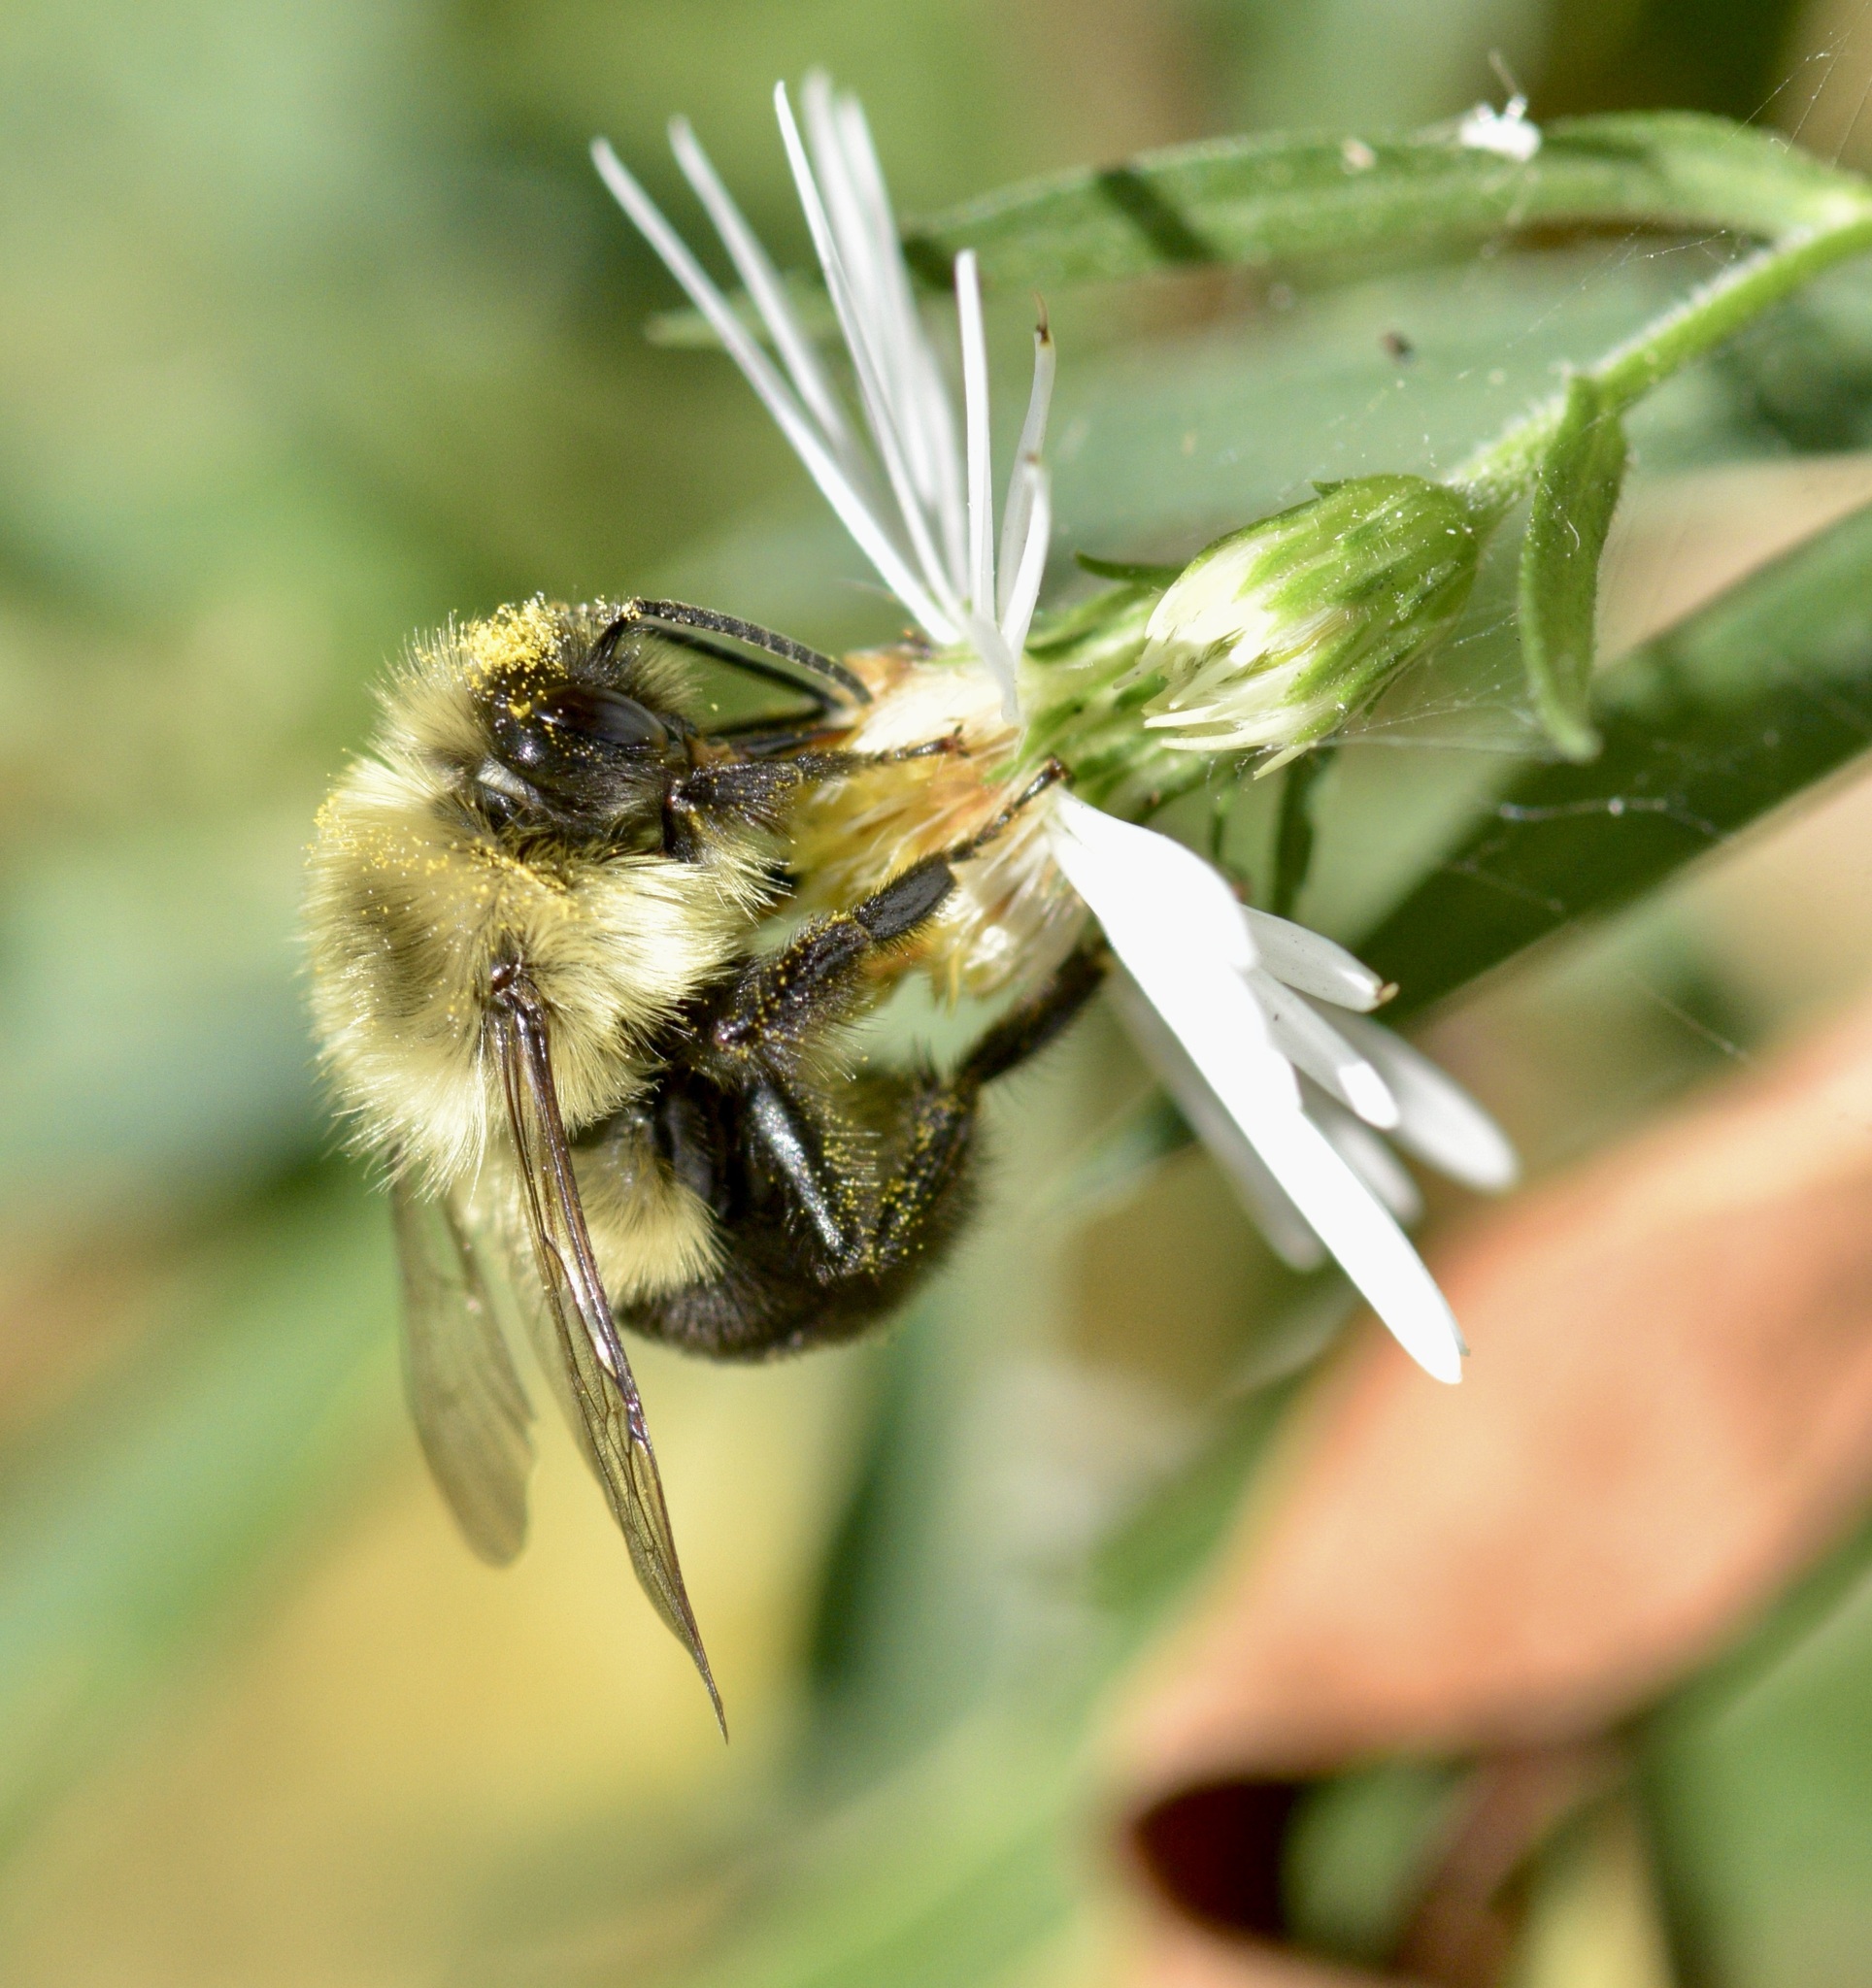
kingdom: Animalia
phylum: Arthropoda
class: Insecta
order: Hymenoptera
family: Apidae
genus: Bombus
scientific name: Bombus impatiens
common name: Common eastern bumble bee
